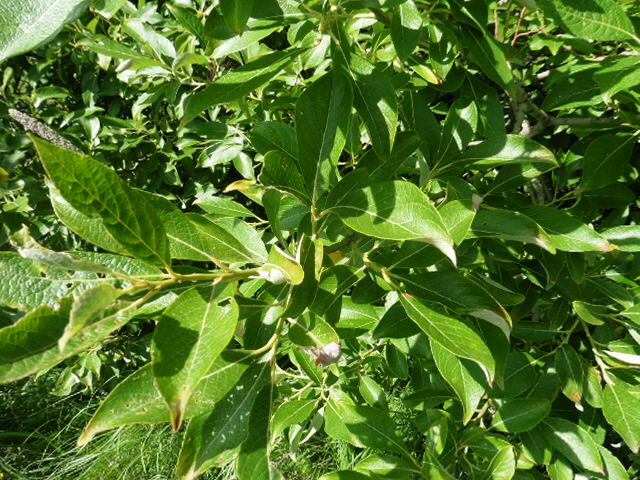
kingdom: Plantae
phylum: Tracheophyta
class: Magnoliopsida
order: Malpighiales
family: Salicaceae
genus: Salix
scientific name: Salix caprea
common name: Goat willow
